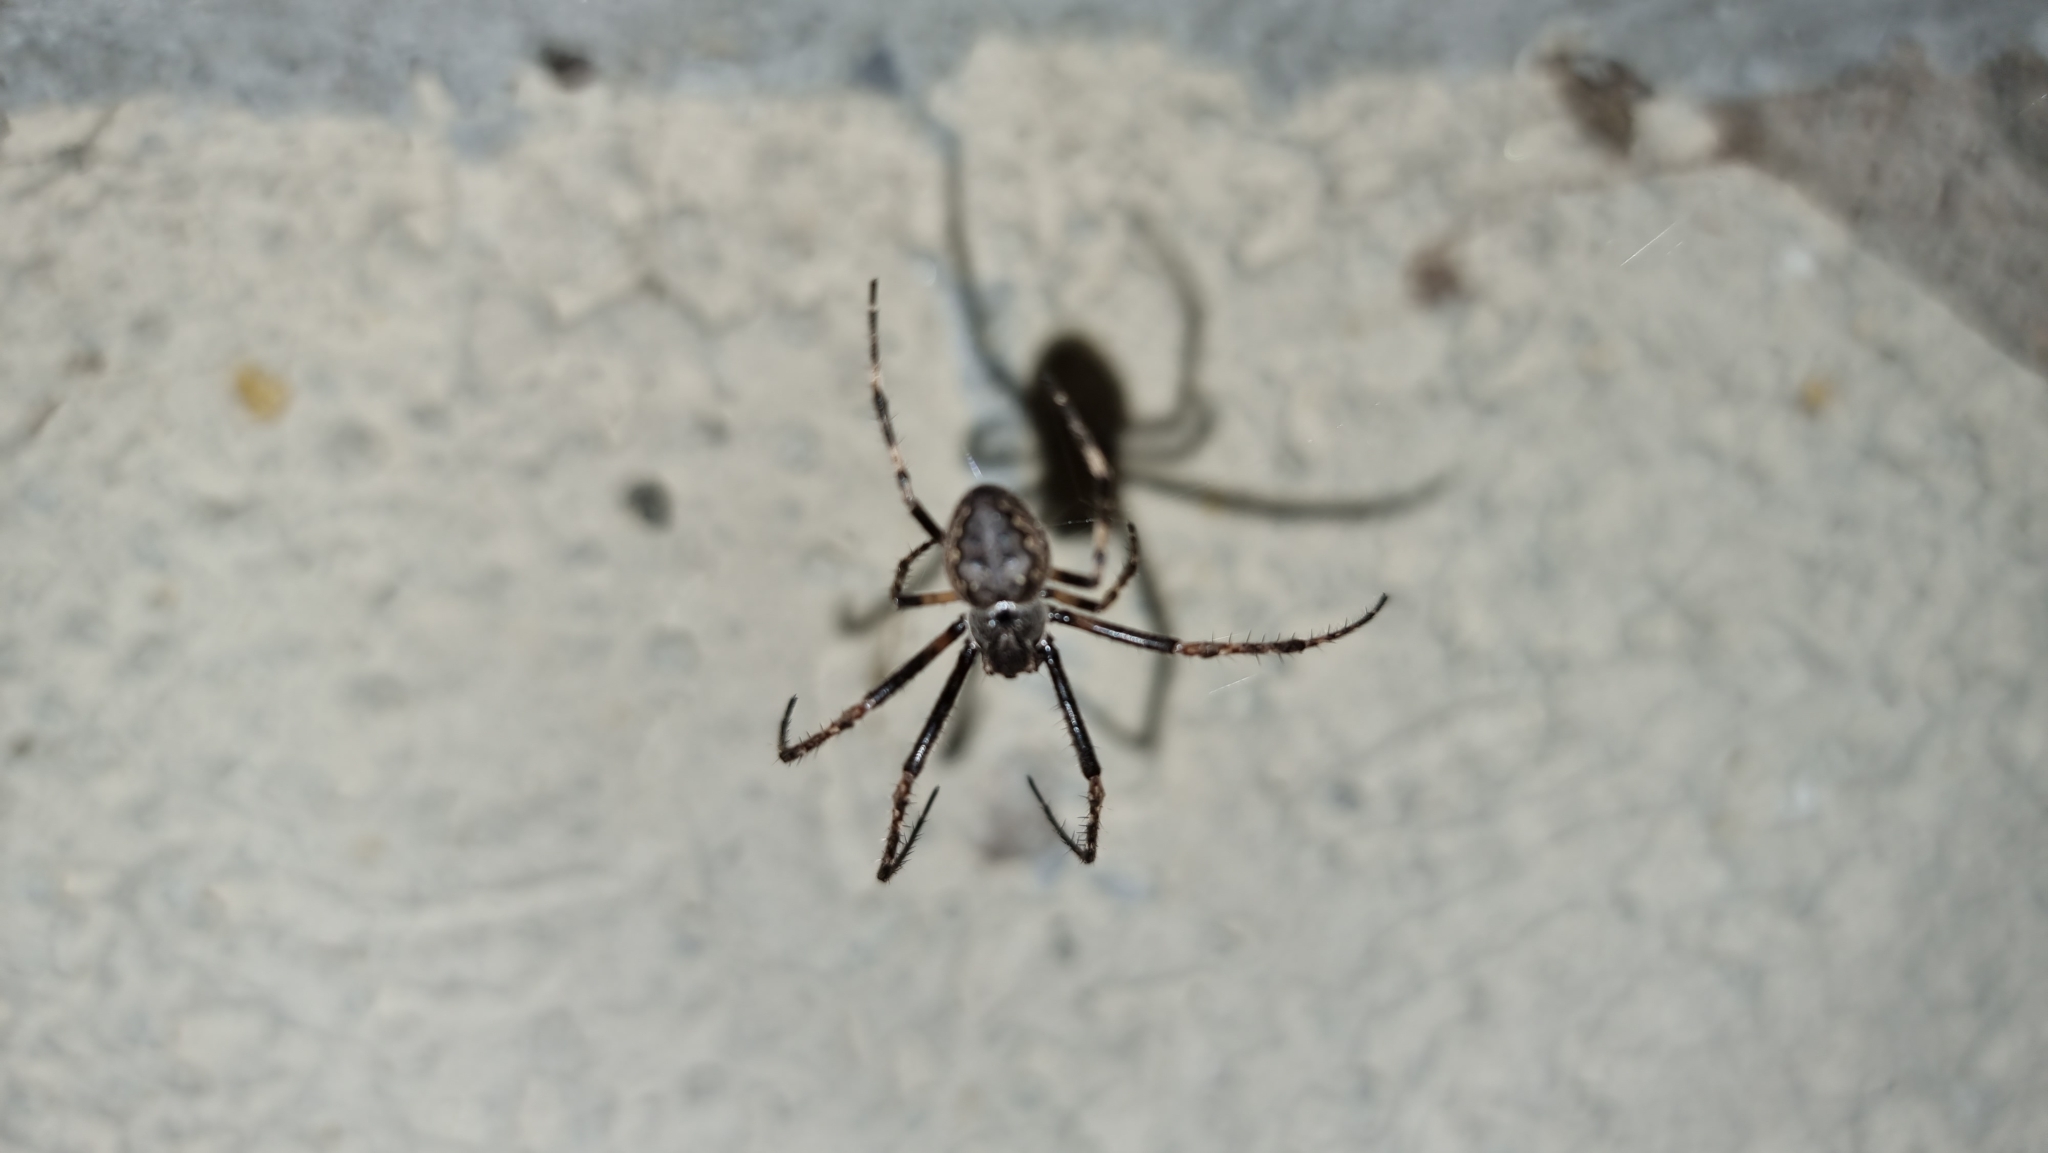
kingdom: Animalia
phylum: Arthropoda
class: Arachnida
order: Araneae
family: Araneidae
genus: Nuctenea
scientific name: Nuctenea umbratica
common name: Toad spider
